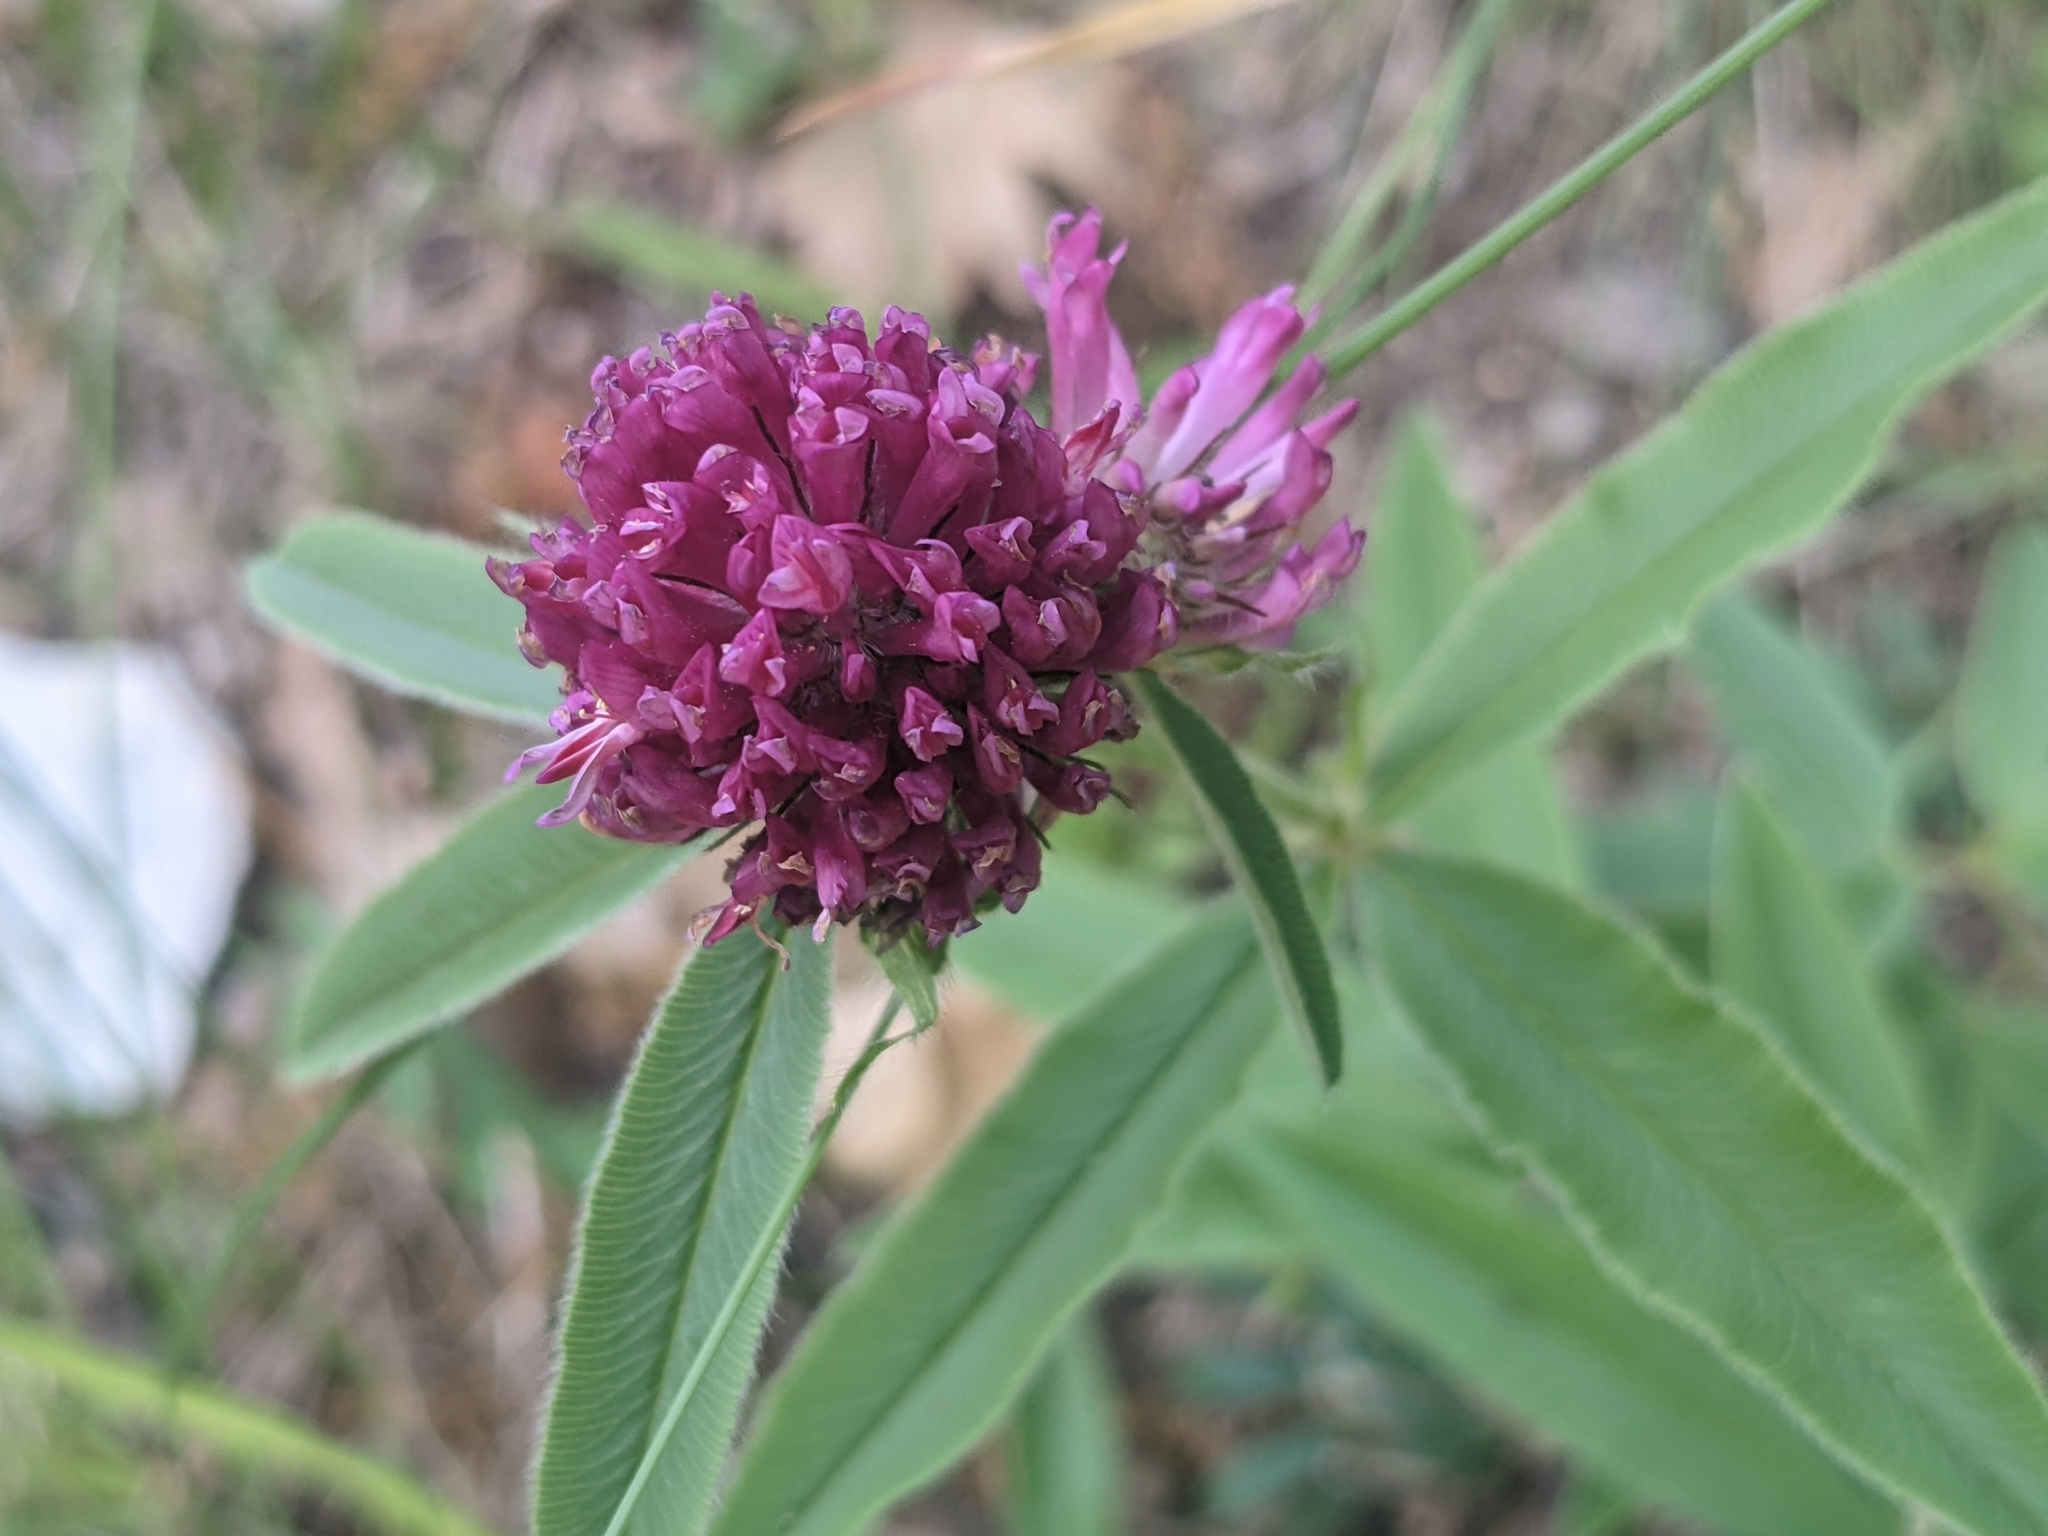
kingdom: Plantae
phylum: Tracheophyta
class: Magnoliopsida
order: Fabales
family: Fabaceae
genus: Trifolium
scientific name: Trifolium alpestre
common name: Owl-head clover
